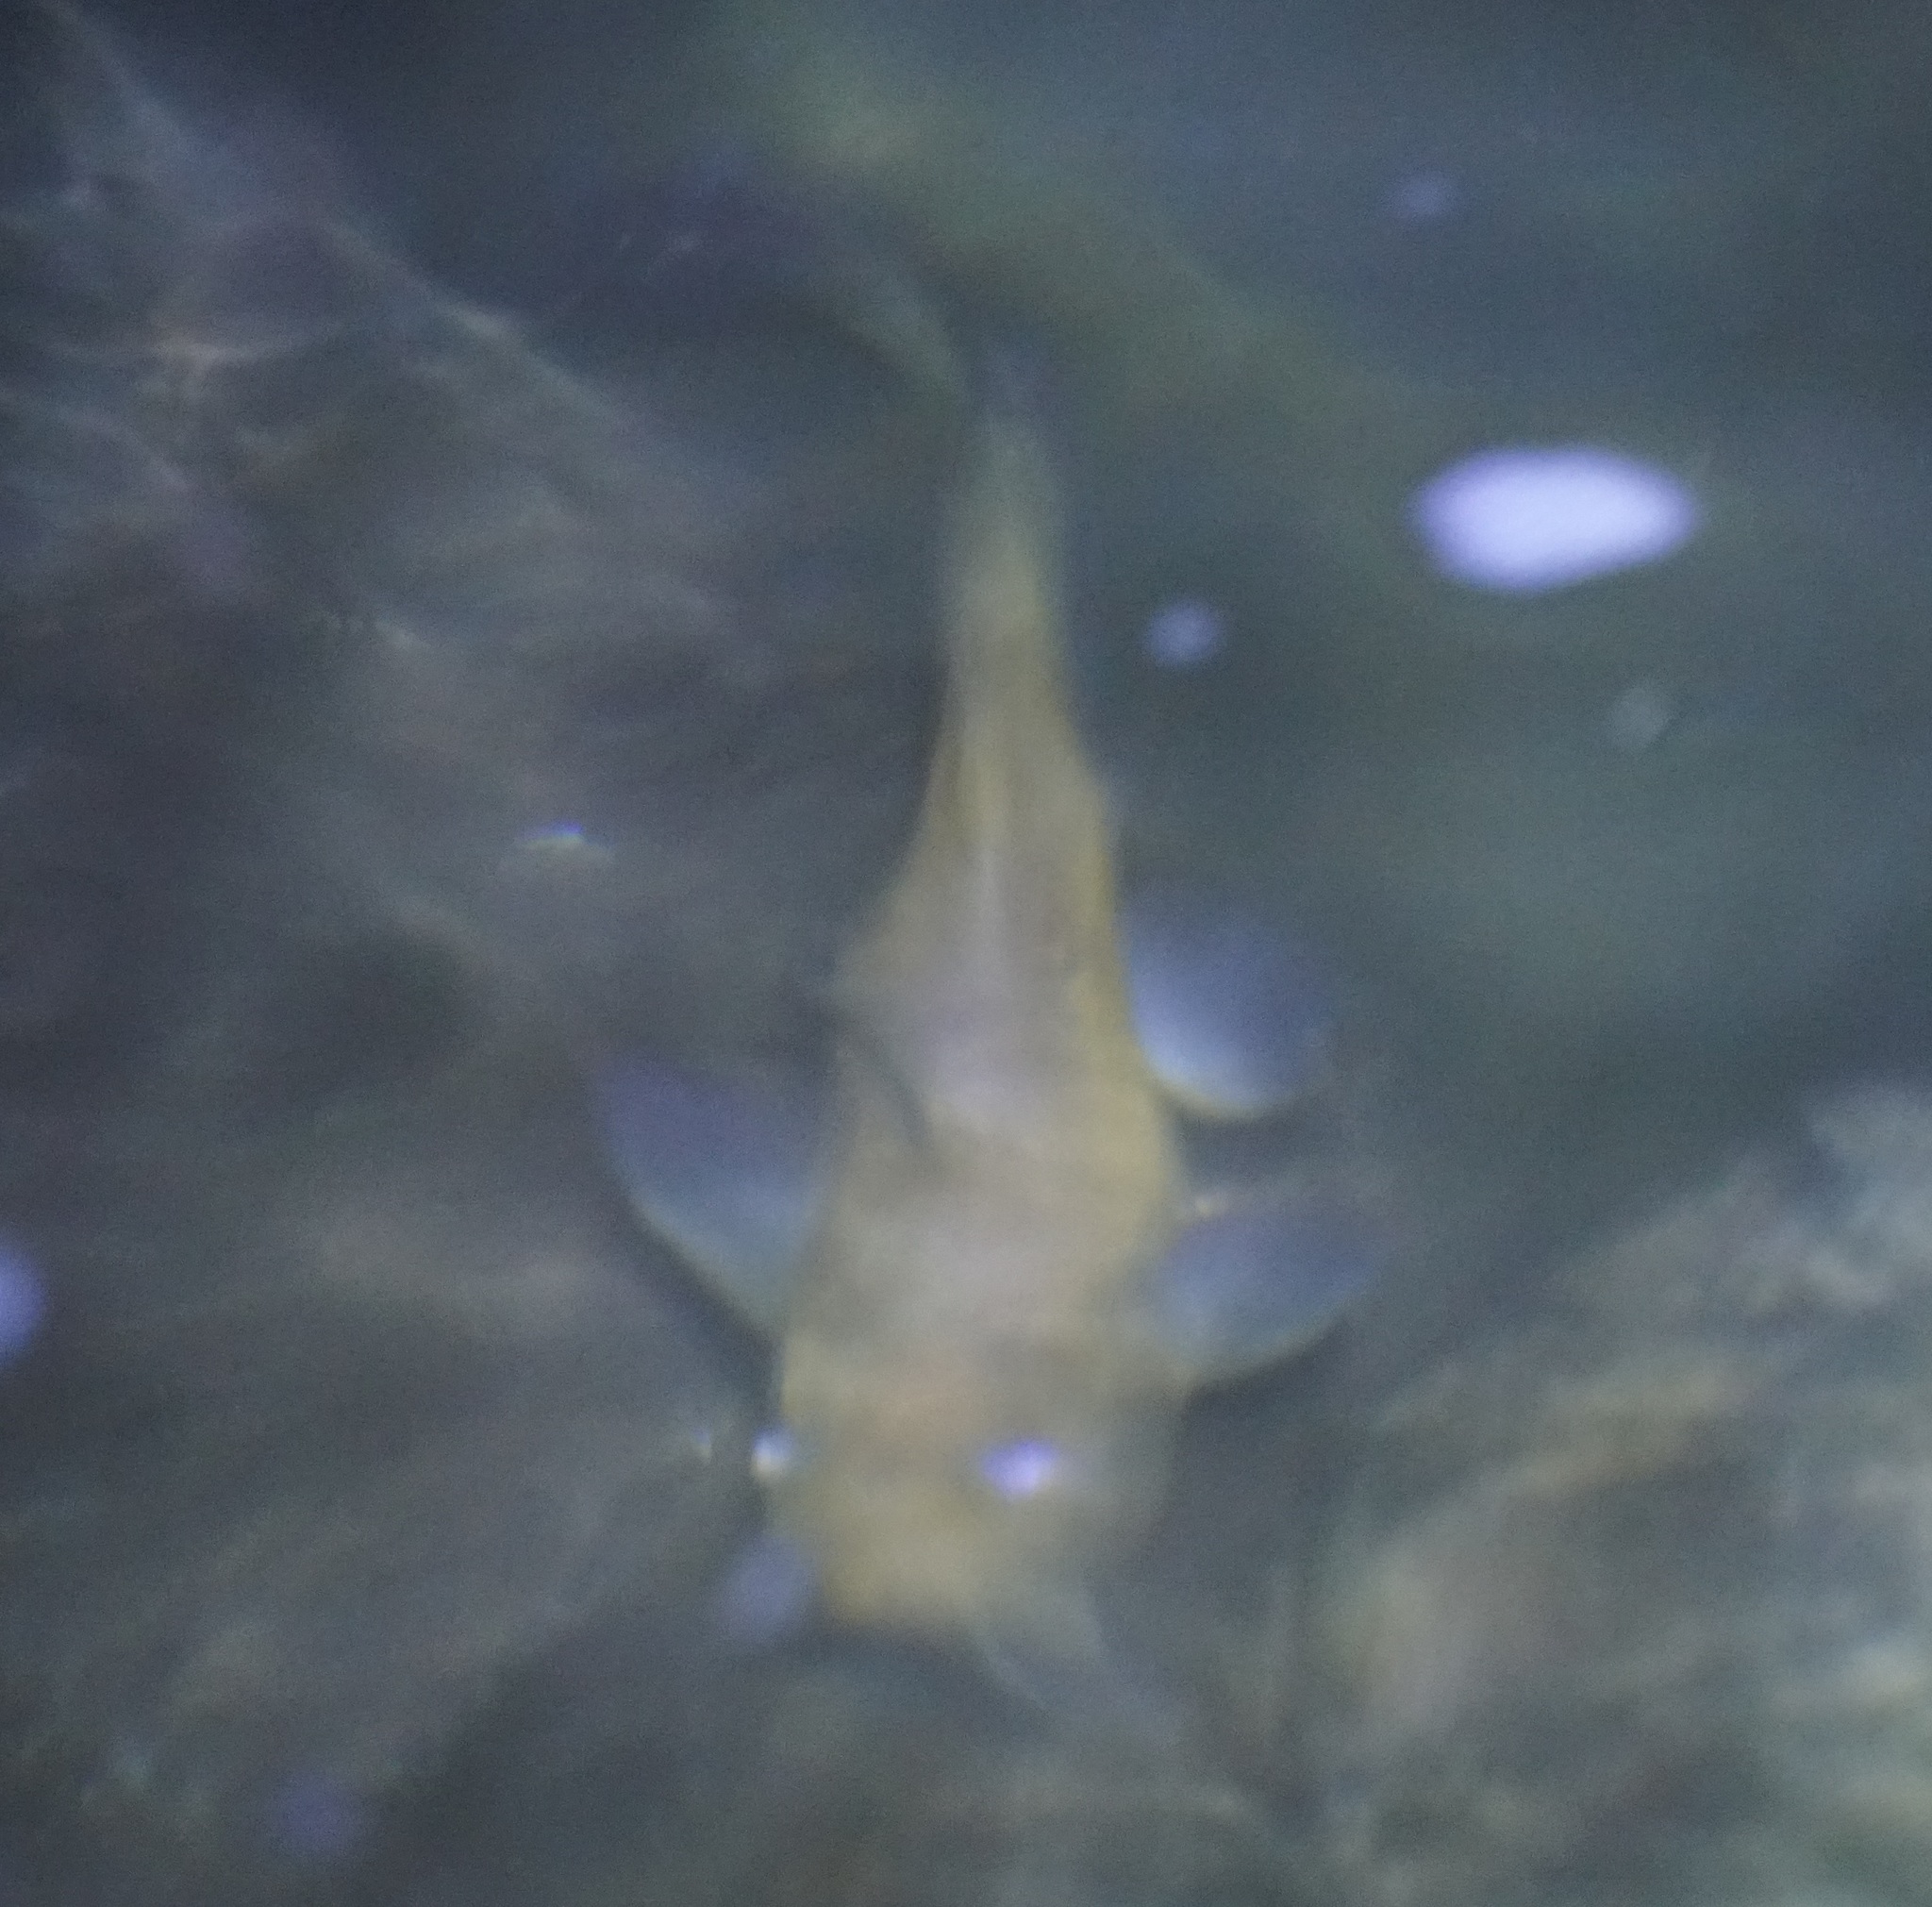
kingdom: Animalia
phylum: Chordata
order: Siluriformes
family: Plotosidae
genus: Tandanus
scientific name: Tandanus tropicanus
